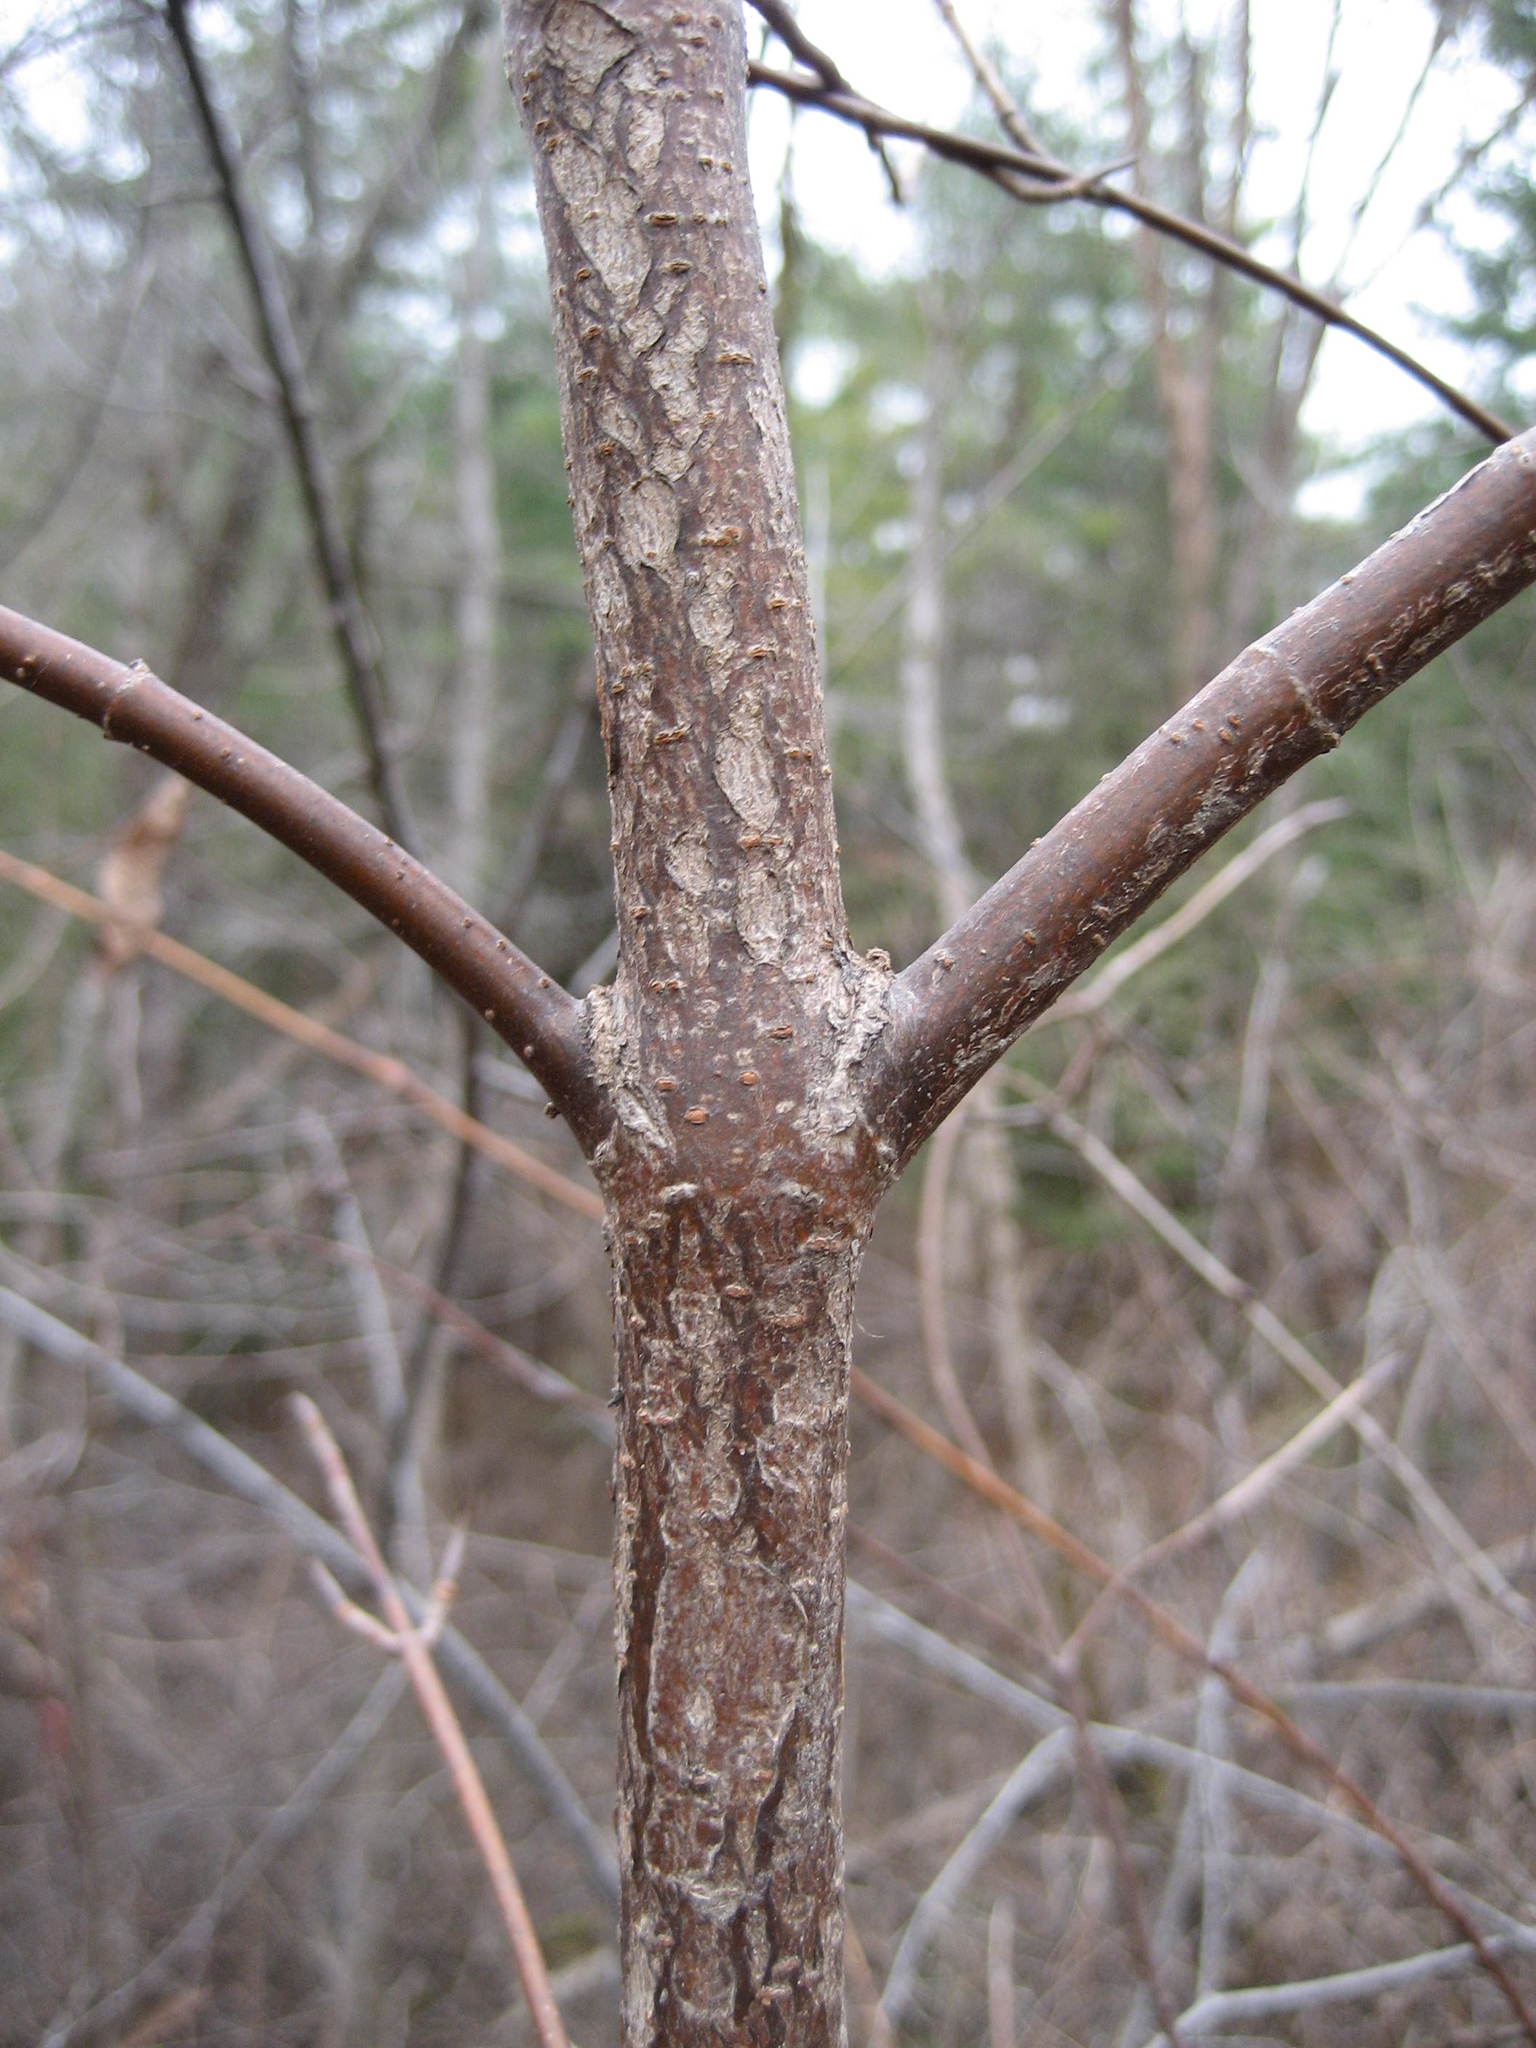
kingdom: Plantae
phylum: Tracheophyta
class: Magnoliopsida
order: Dipsacales
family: Viburnaceae
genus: Viburnum
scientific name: Viburnum lentago
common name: Black haw
